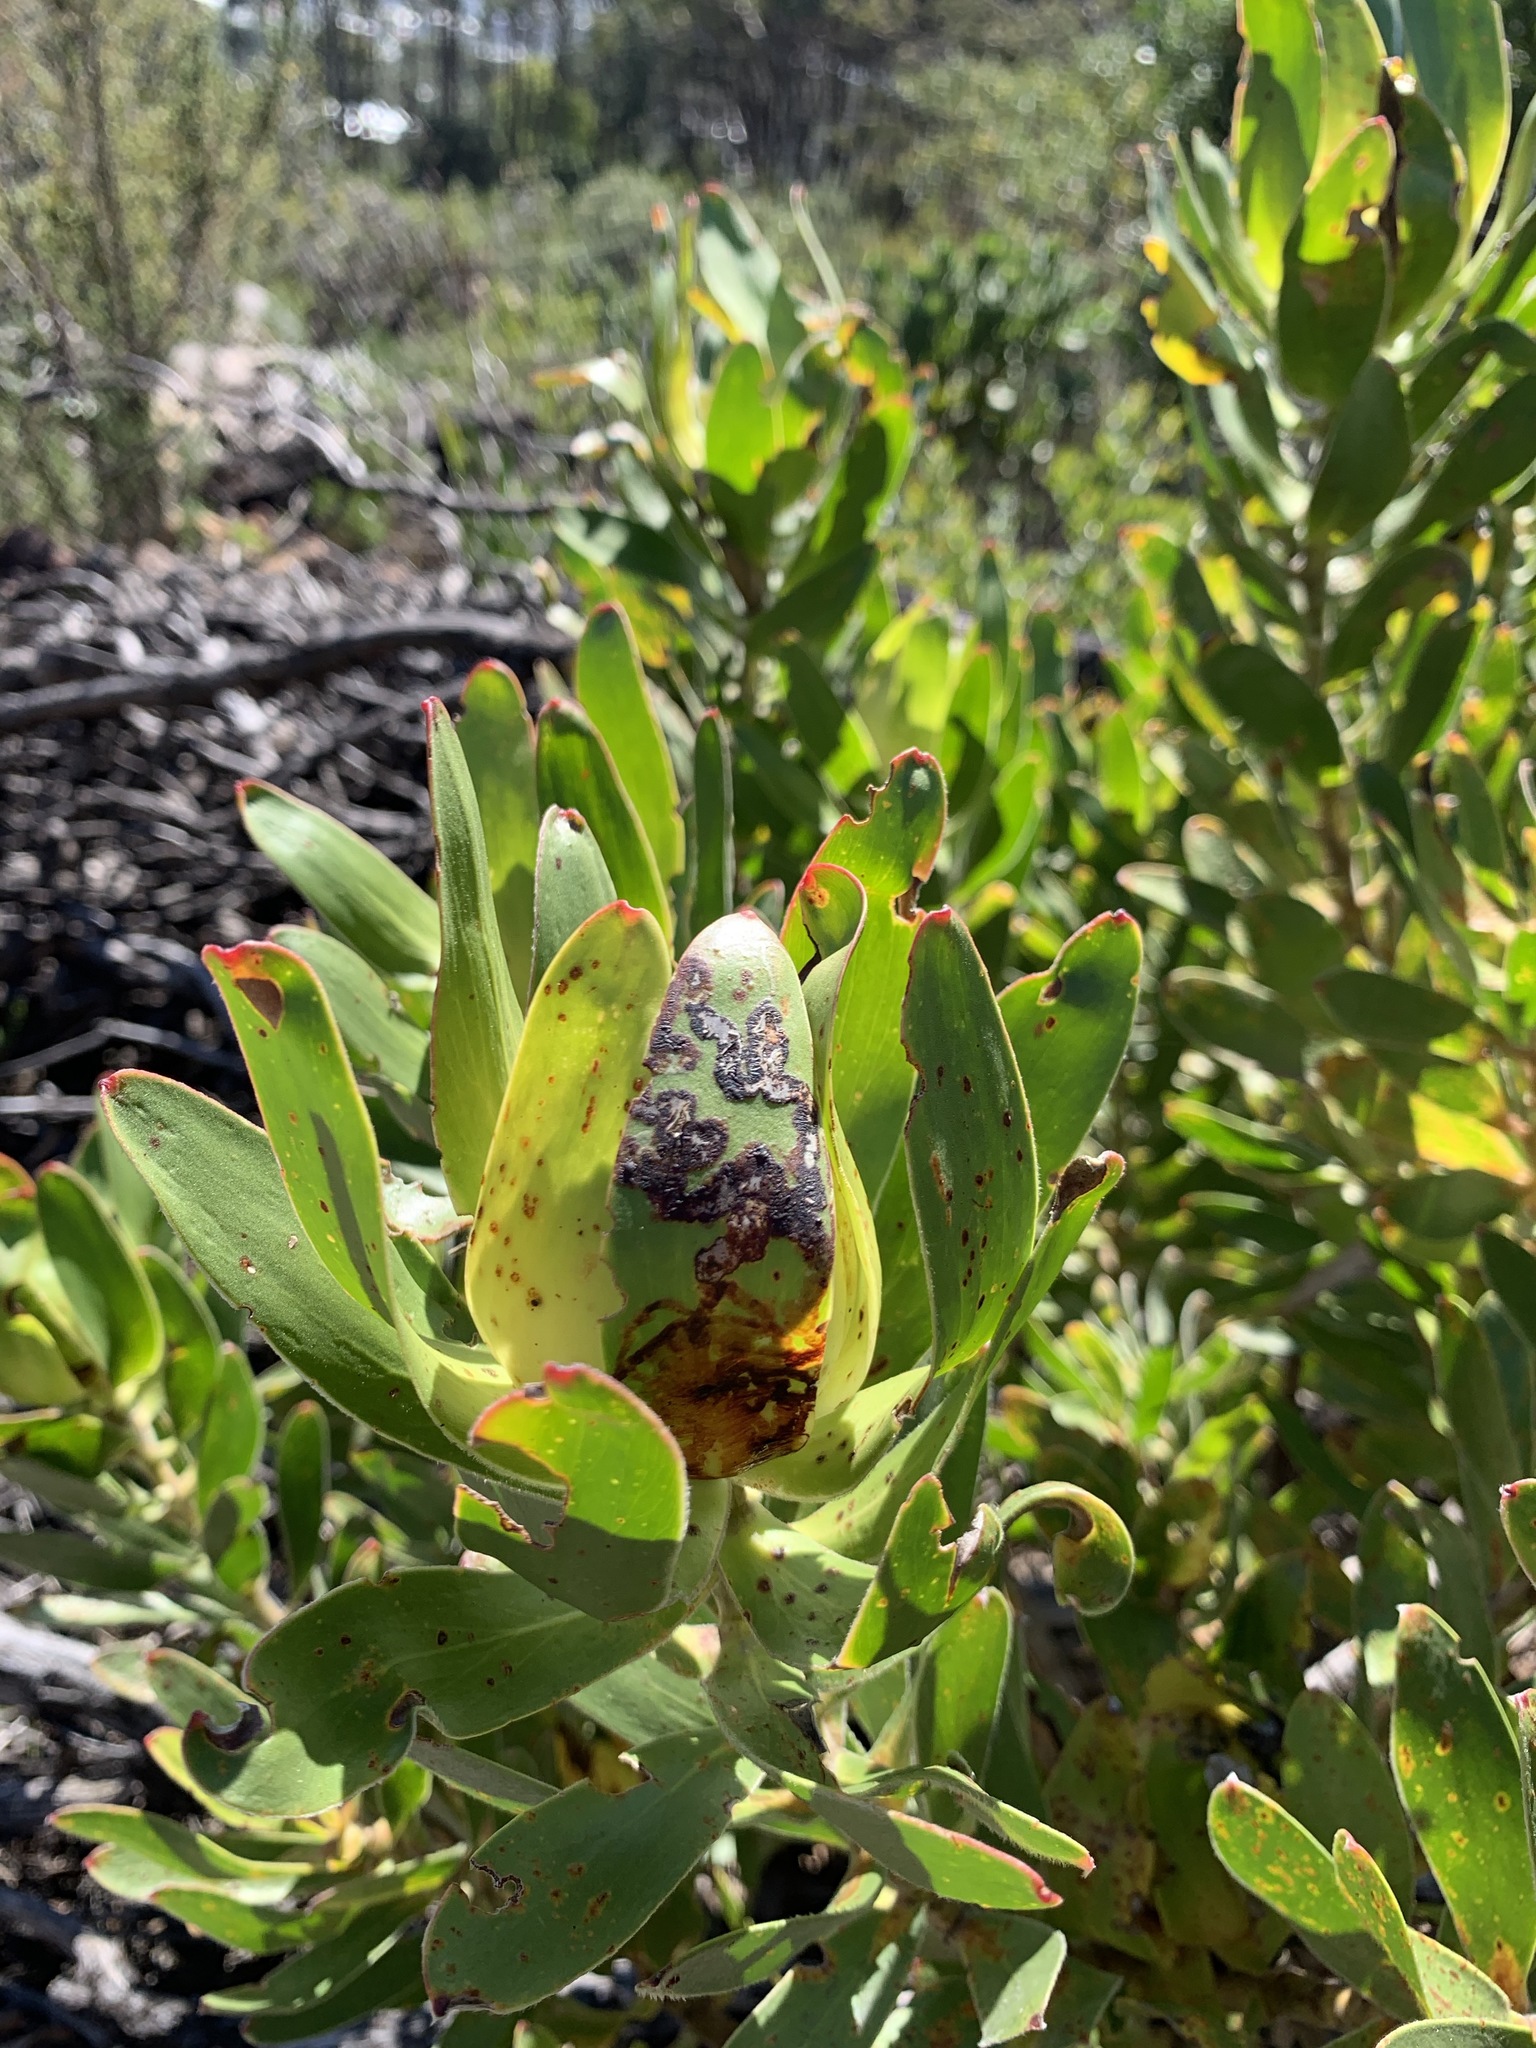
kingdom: Plantae
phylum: Tracheophyta
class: Magnoliopsida
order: Proteales
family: Proteaceae
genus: Leucadendron
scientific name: Leucadendron laureolum
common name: Golden sunshinebush
